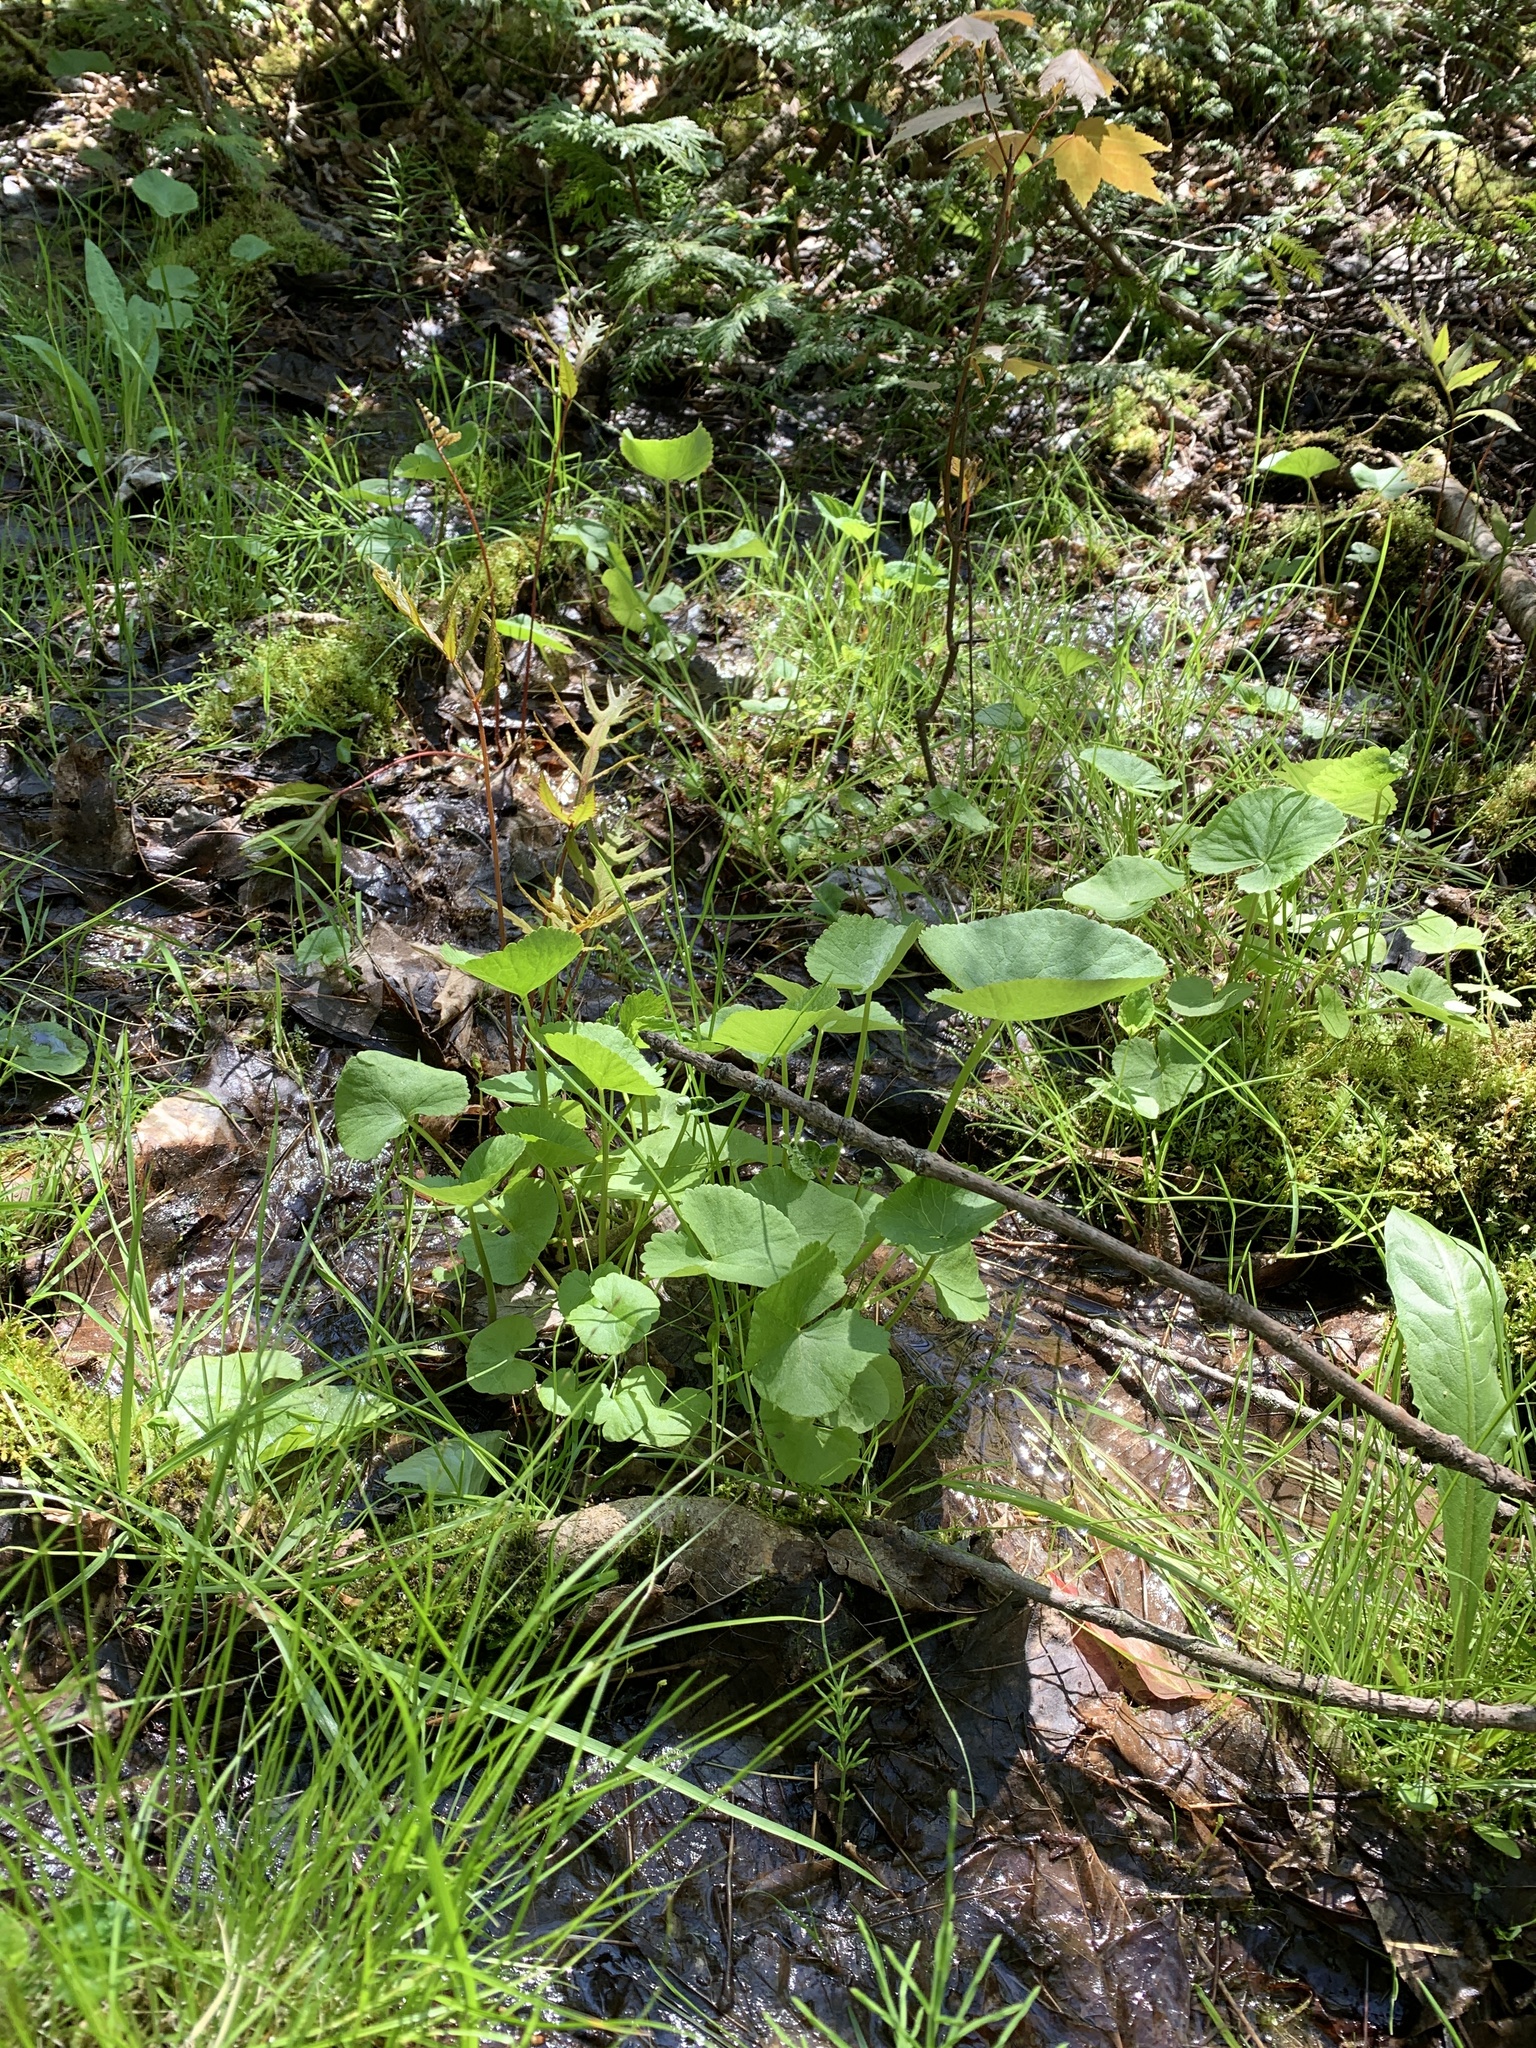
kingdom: Plantae
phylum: Tracheophyta
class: Magnoliopsida
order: Ranunculales
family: Ranunculaceae
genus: Caltha
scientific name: Caltha palustris
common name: Marsh marigold
